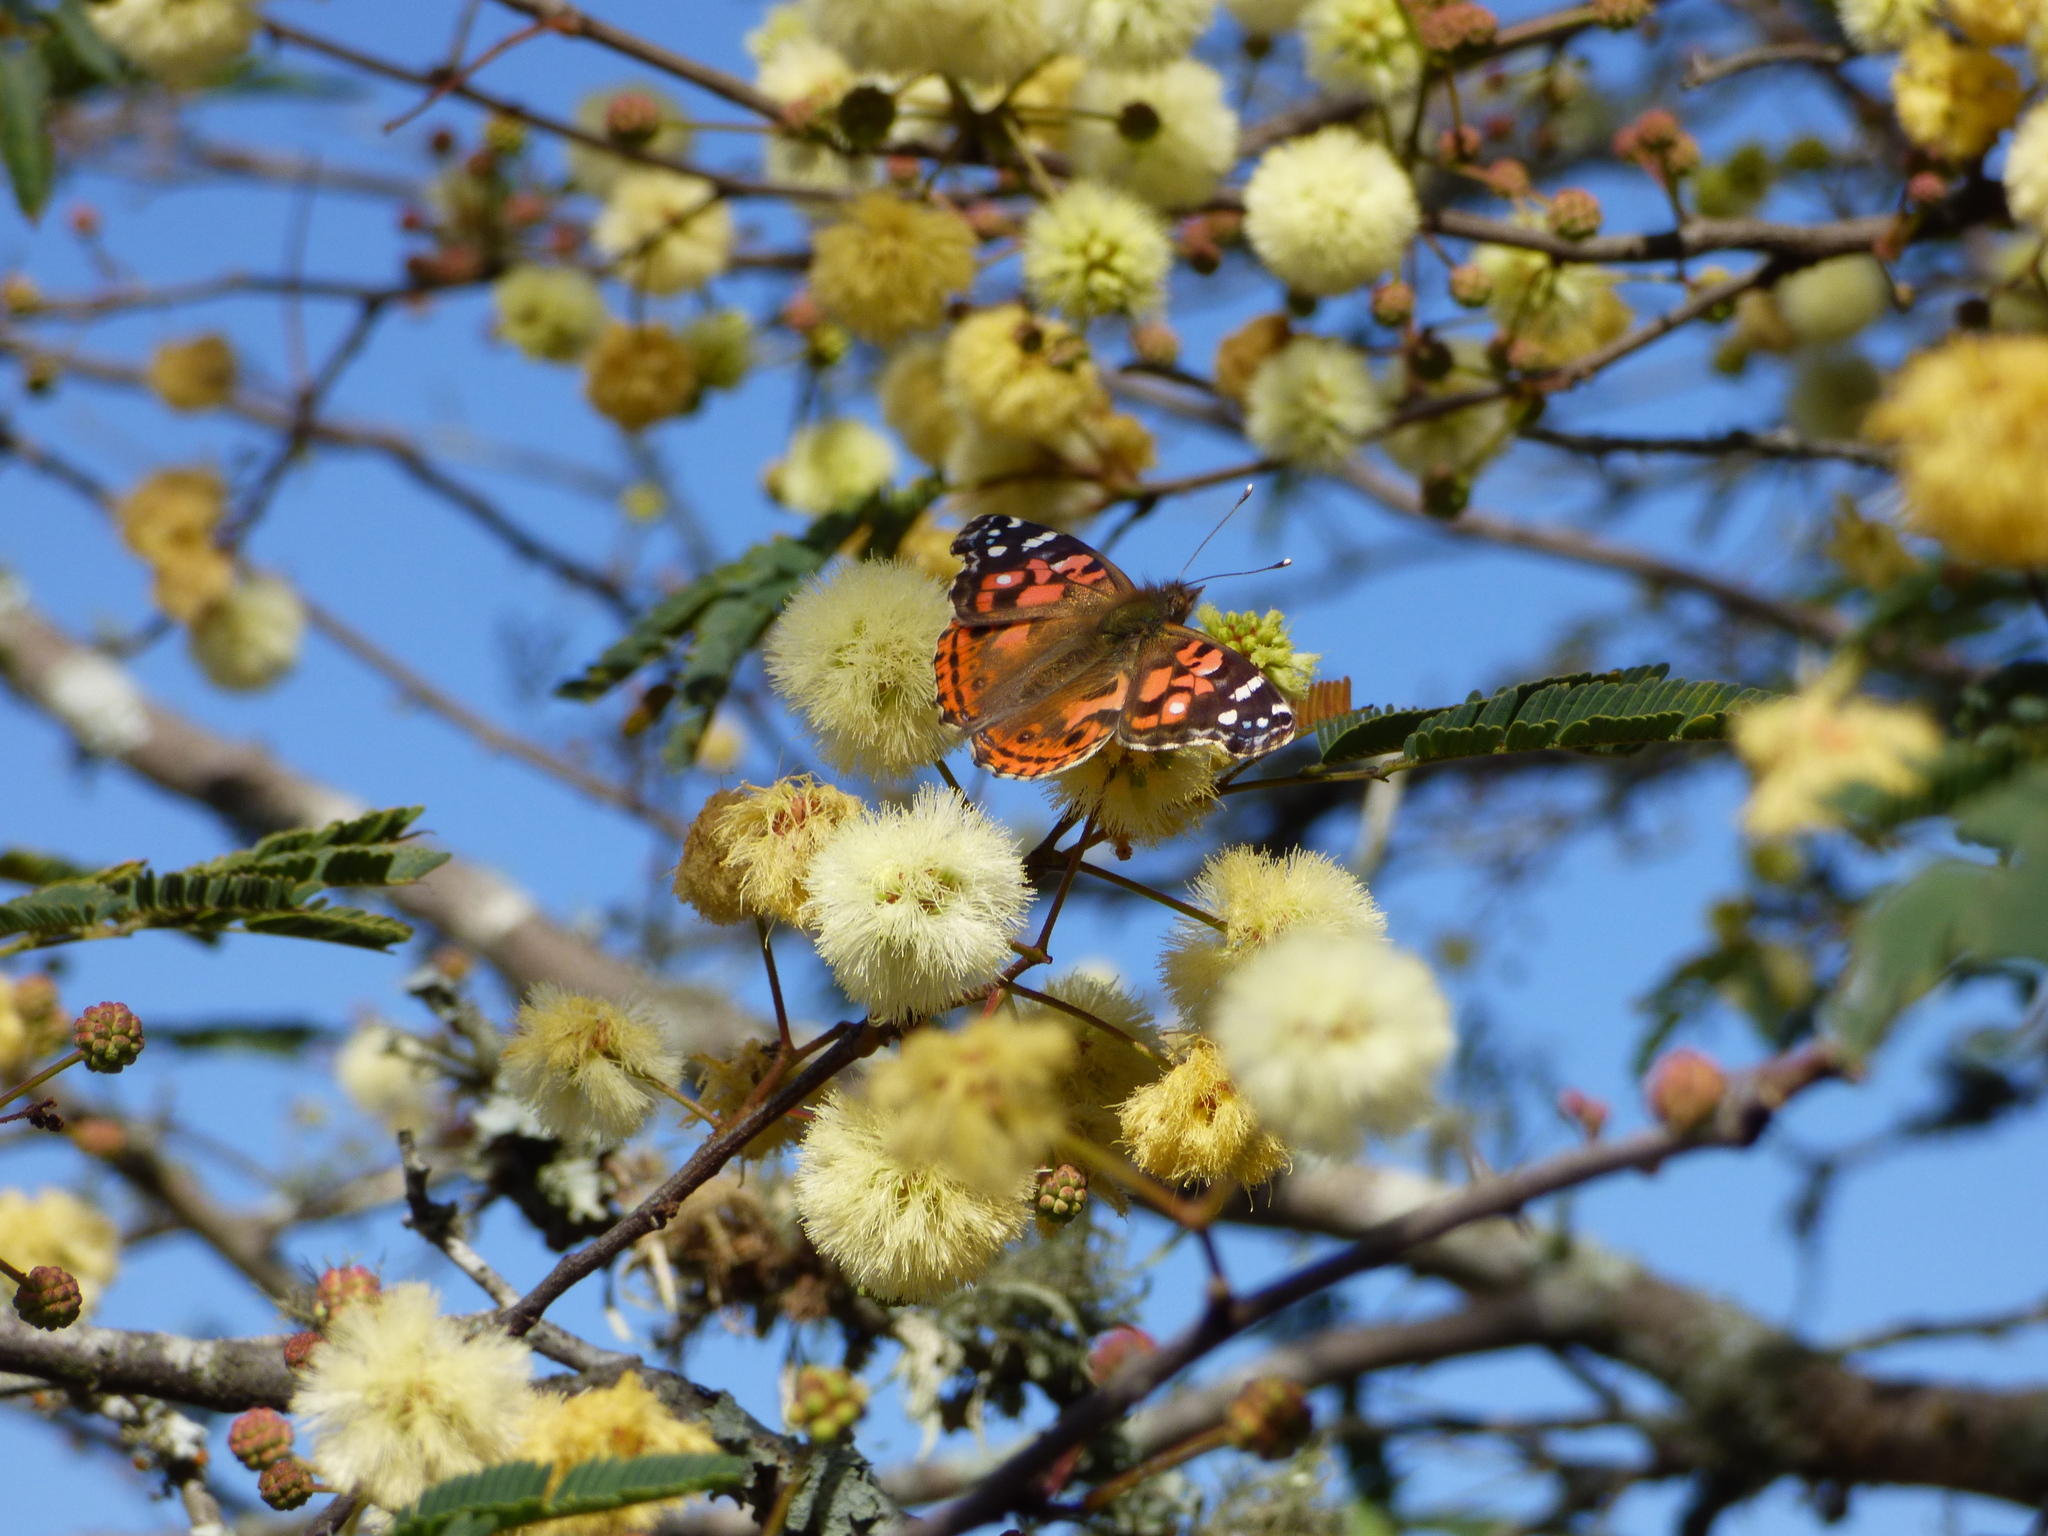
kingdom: Animalia
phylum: Arthropoda
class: Insecta
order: Lepidoptera
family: Nymphalidae
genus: Vanessa
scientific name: Vanessa braziliensis
